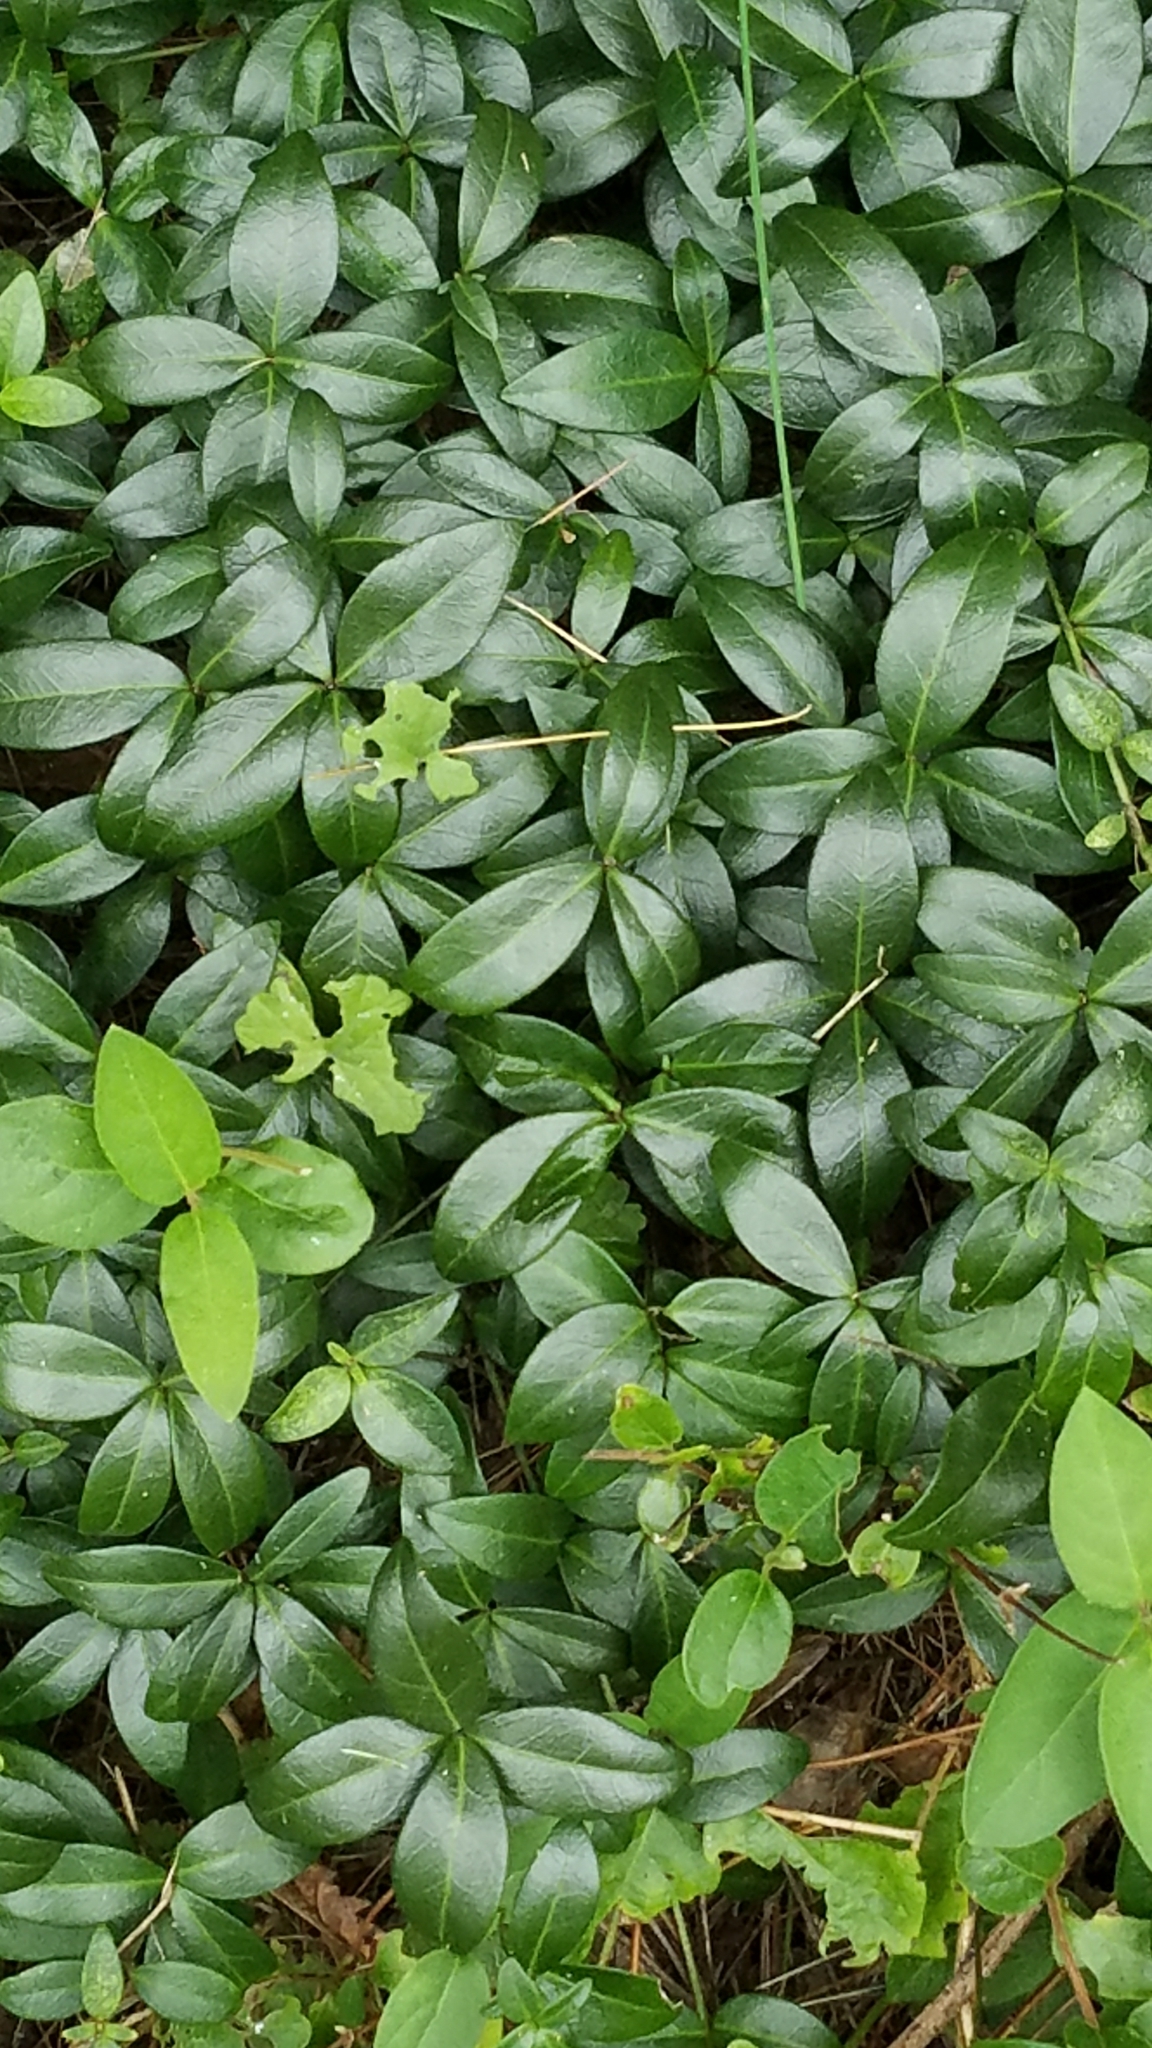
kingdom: Plantae
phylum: Tracheophyta
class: Magnoliopsida
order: Gentianales
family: Apocynaceae
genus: Vinca
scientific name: Vinca minor
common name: Lesser periwinkle
